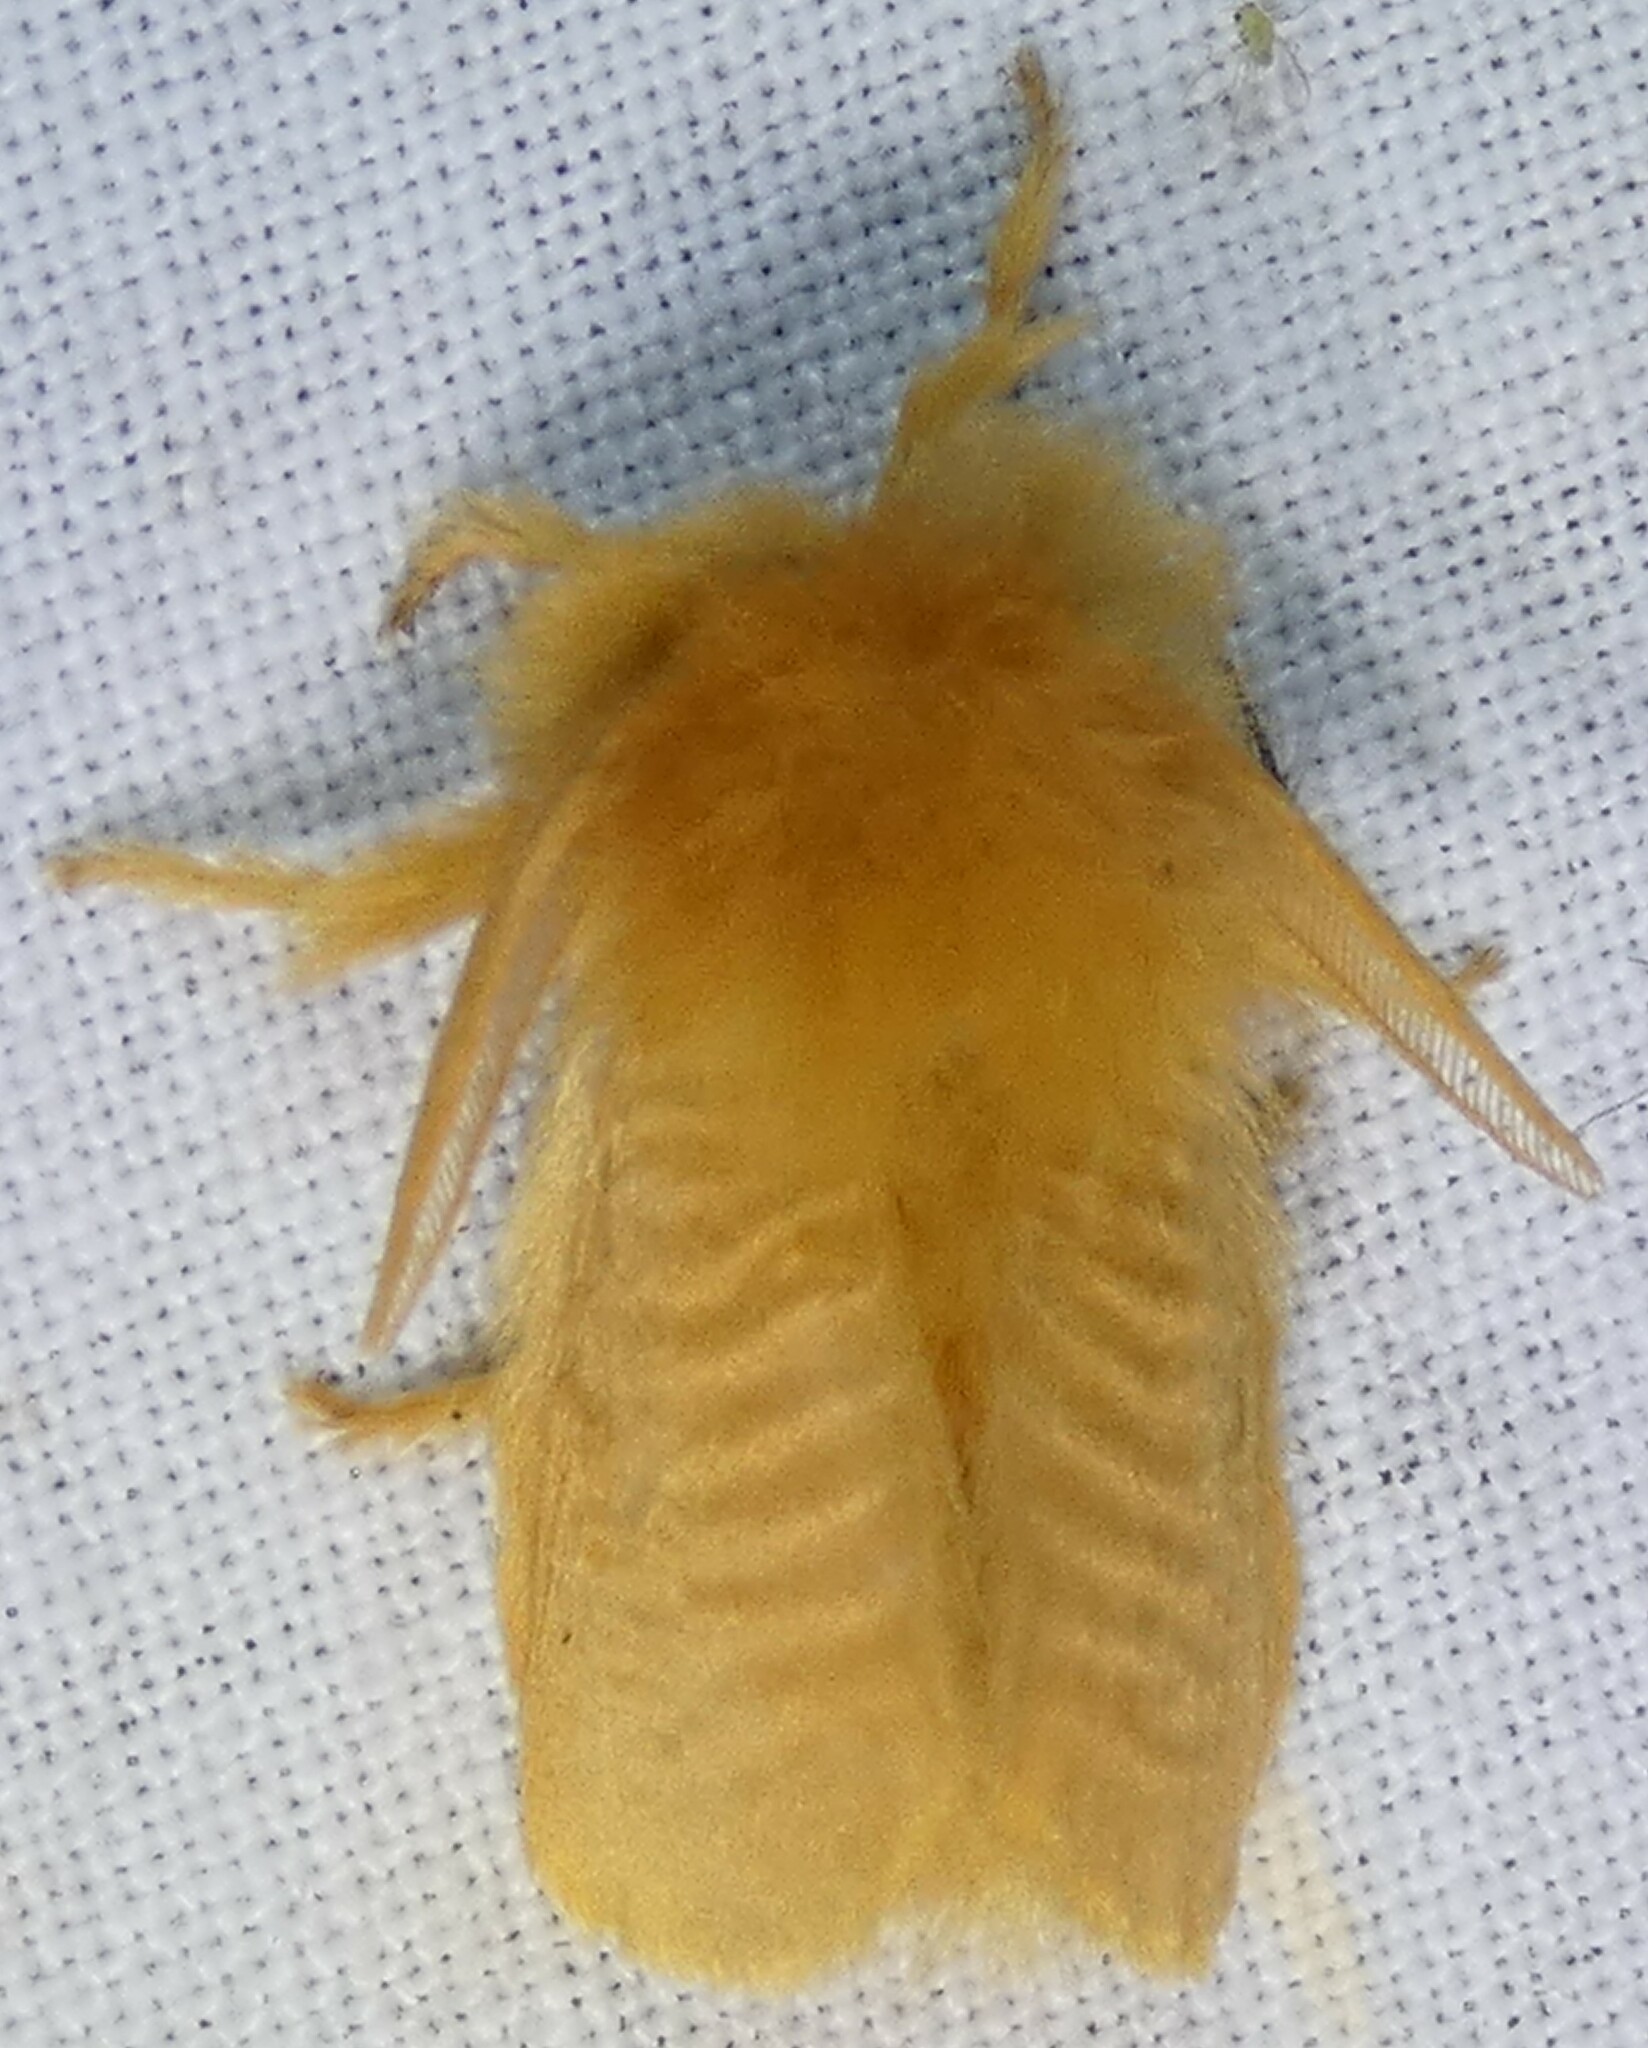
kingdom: Animalia
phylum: Arthropoda
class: Insecta
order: Lepidoptera
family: Megalopygidae
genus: Megalopyge
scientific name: Megalopyge pixidifera
